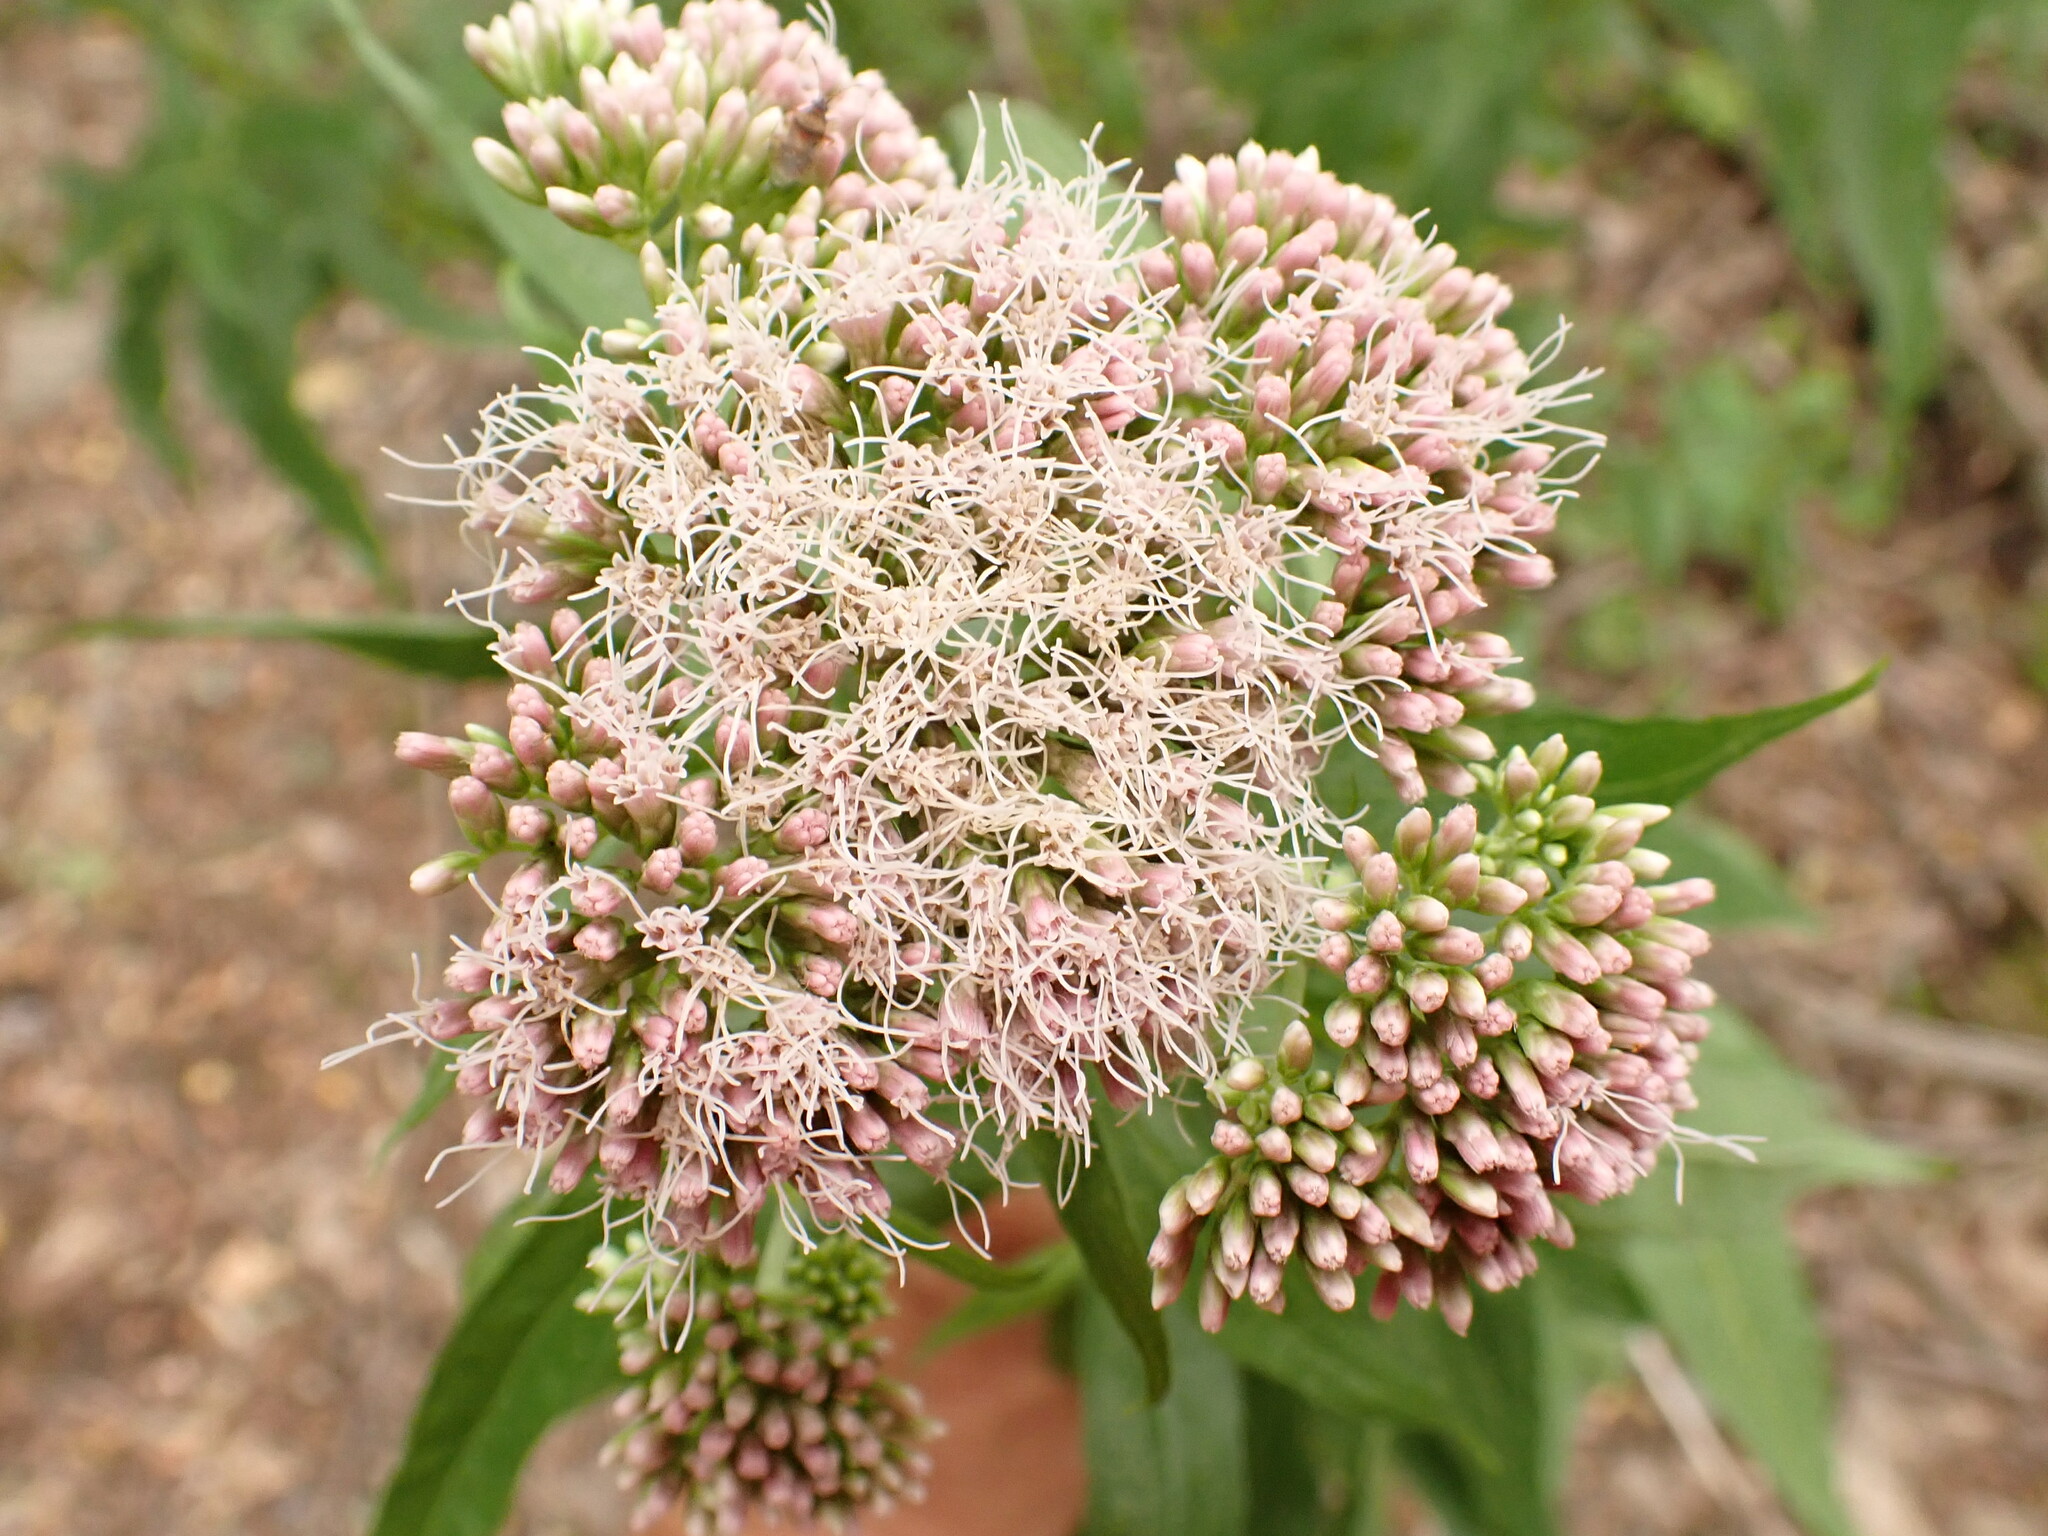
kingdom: Plantae
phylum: Tracheophyta
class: Magnoliopsida
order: Asterales
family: Asteraceae
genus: Eupatorium
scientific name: Eupatorium cannabinum
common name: Hemp-agrimony
